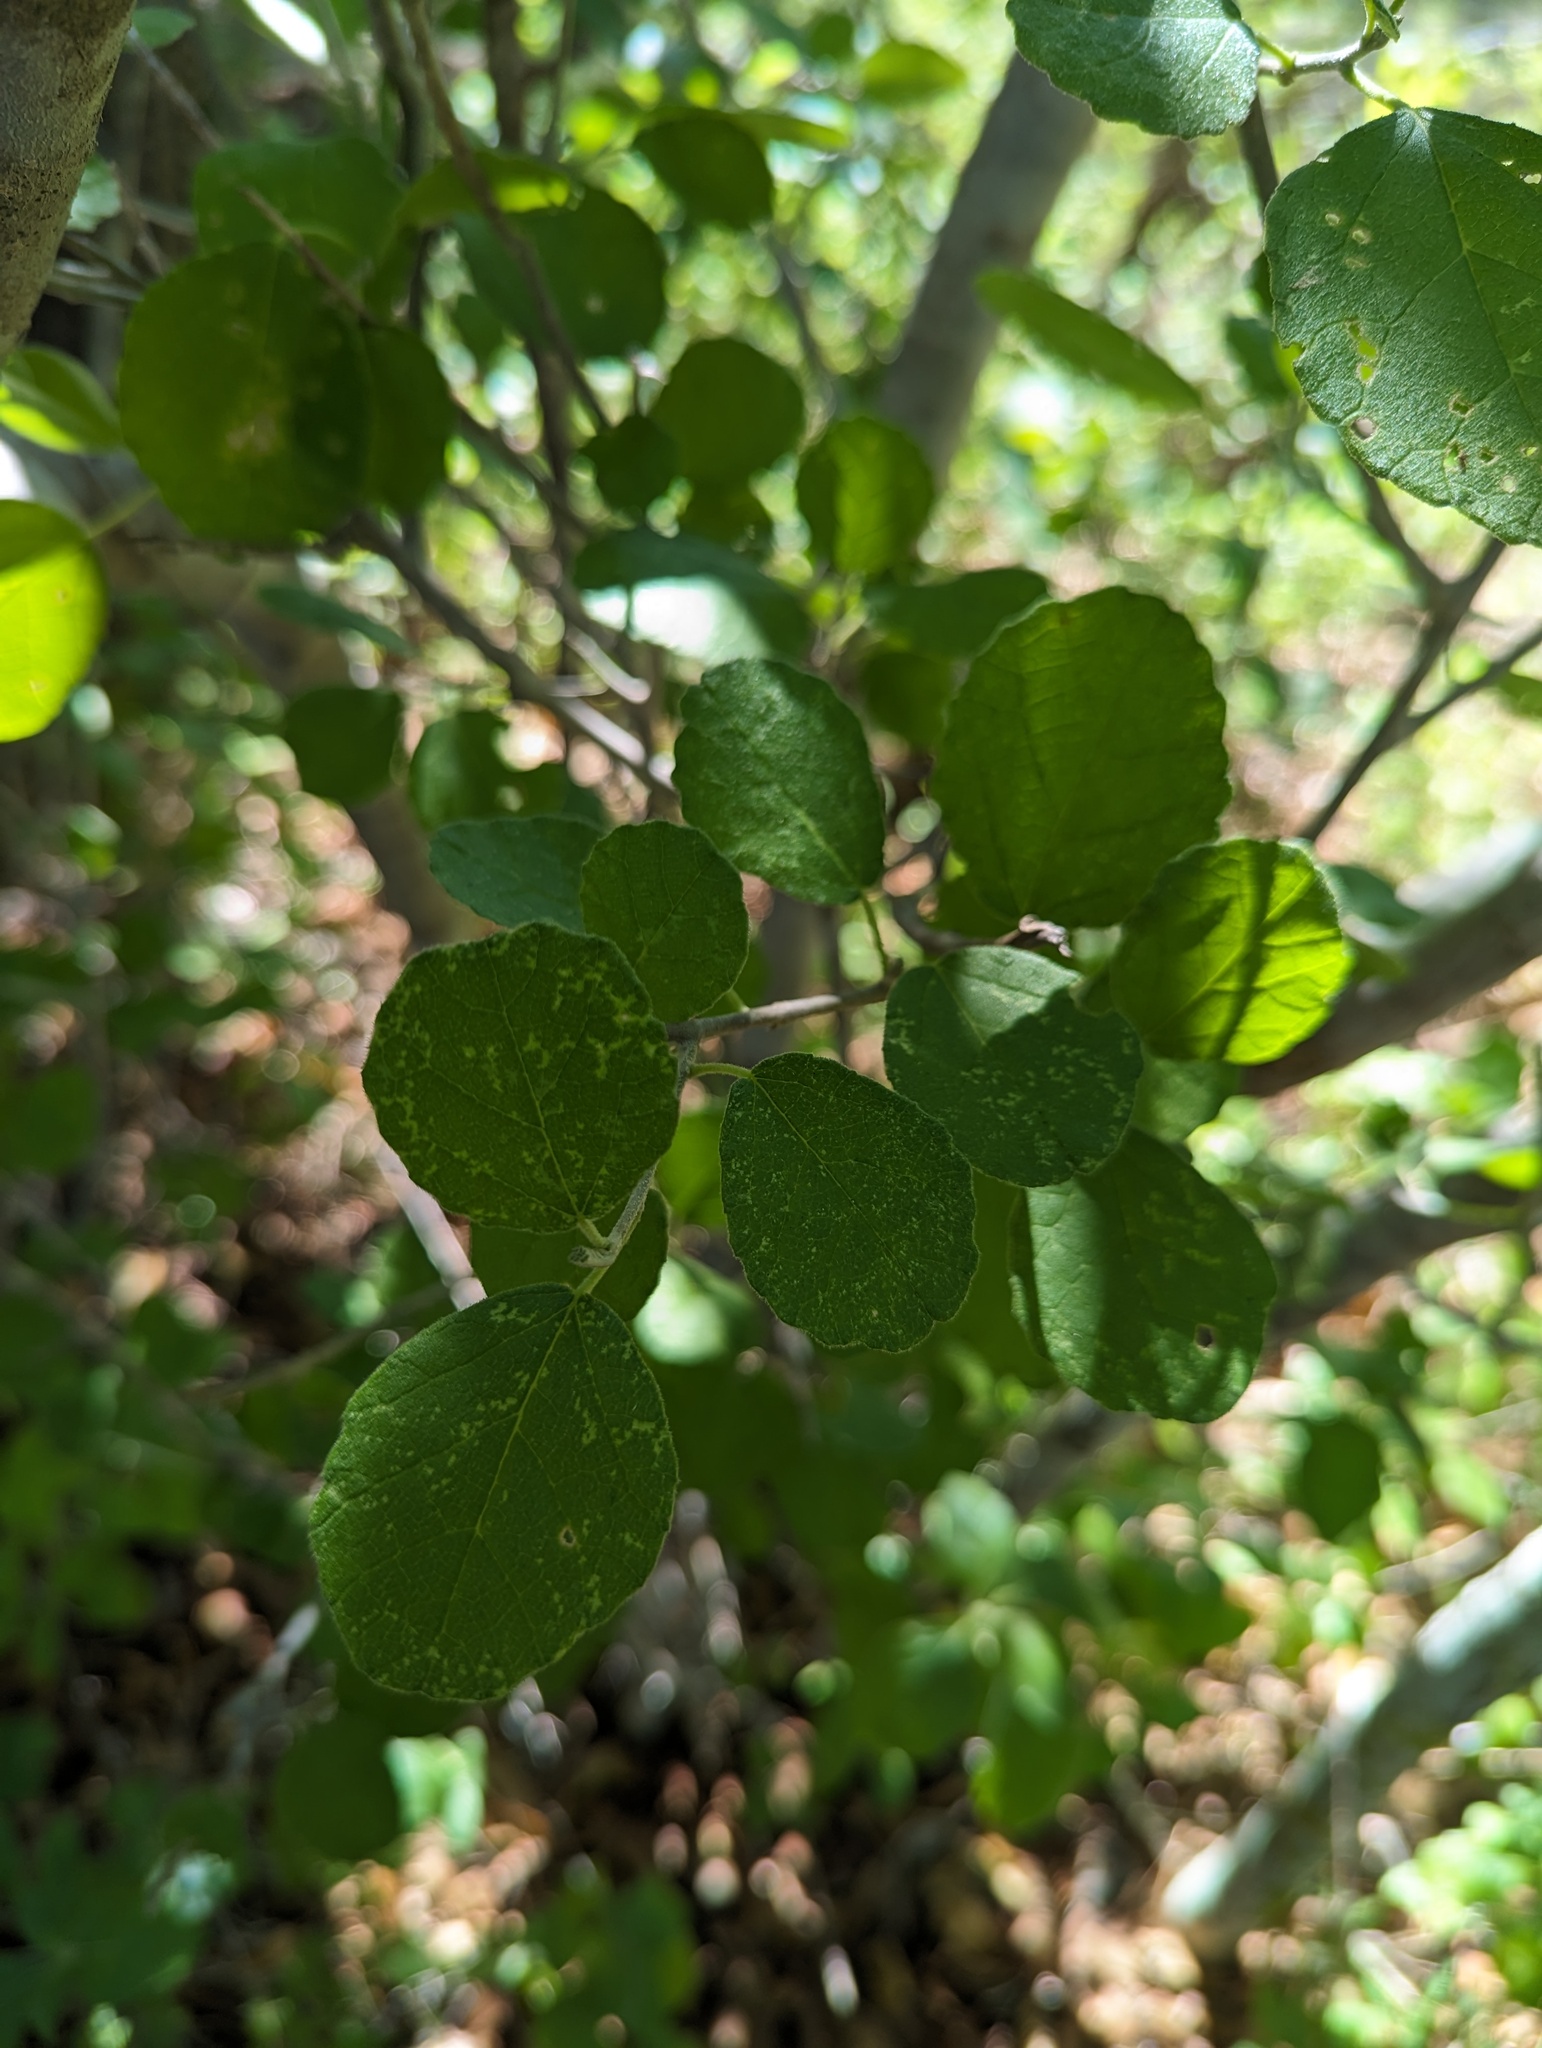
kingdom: Plantae
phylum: Tracheophyta
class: Magnoliopsida
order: Malpighiales
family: Euphorbiaceae
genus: Bernardia
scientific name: Bernardia viridis
